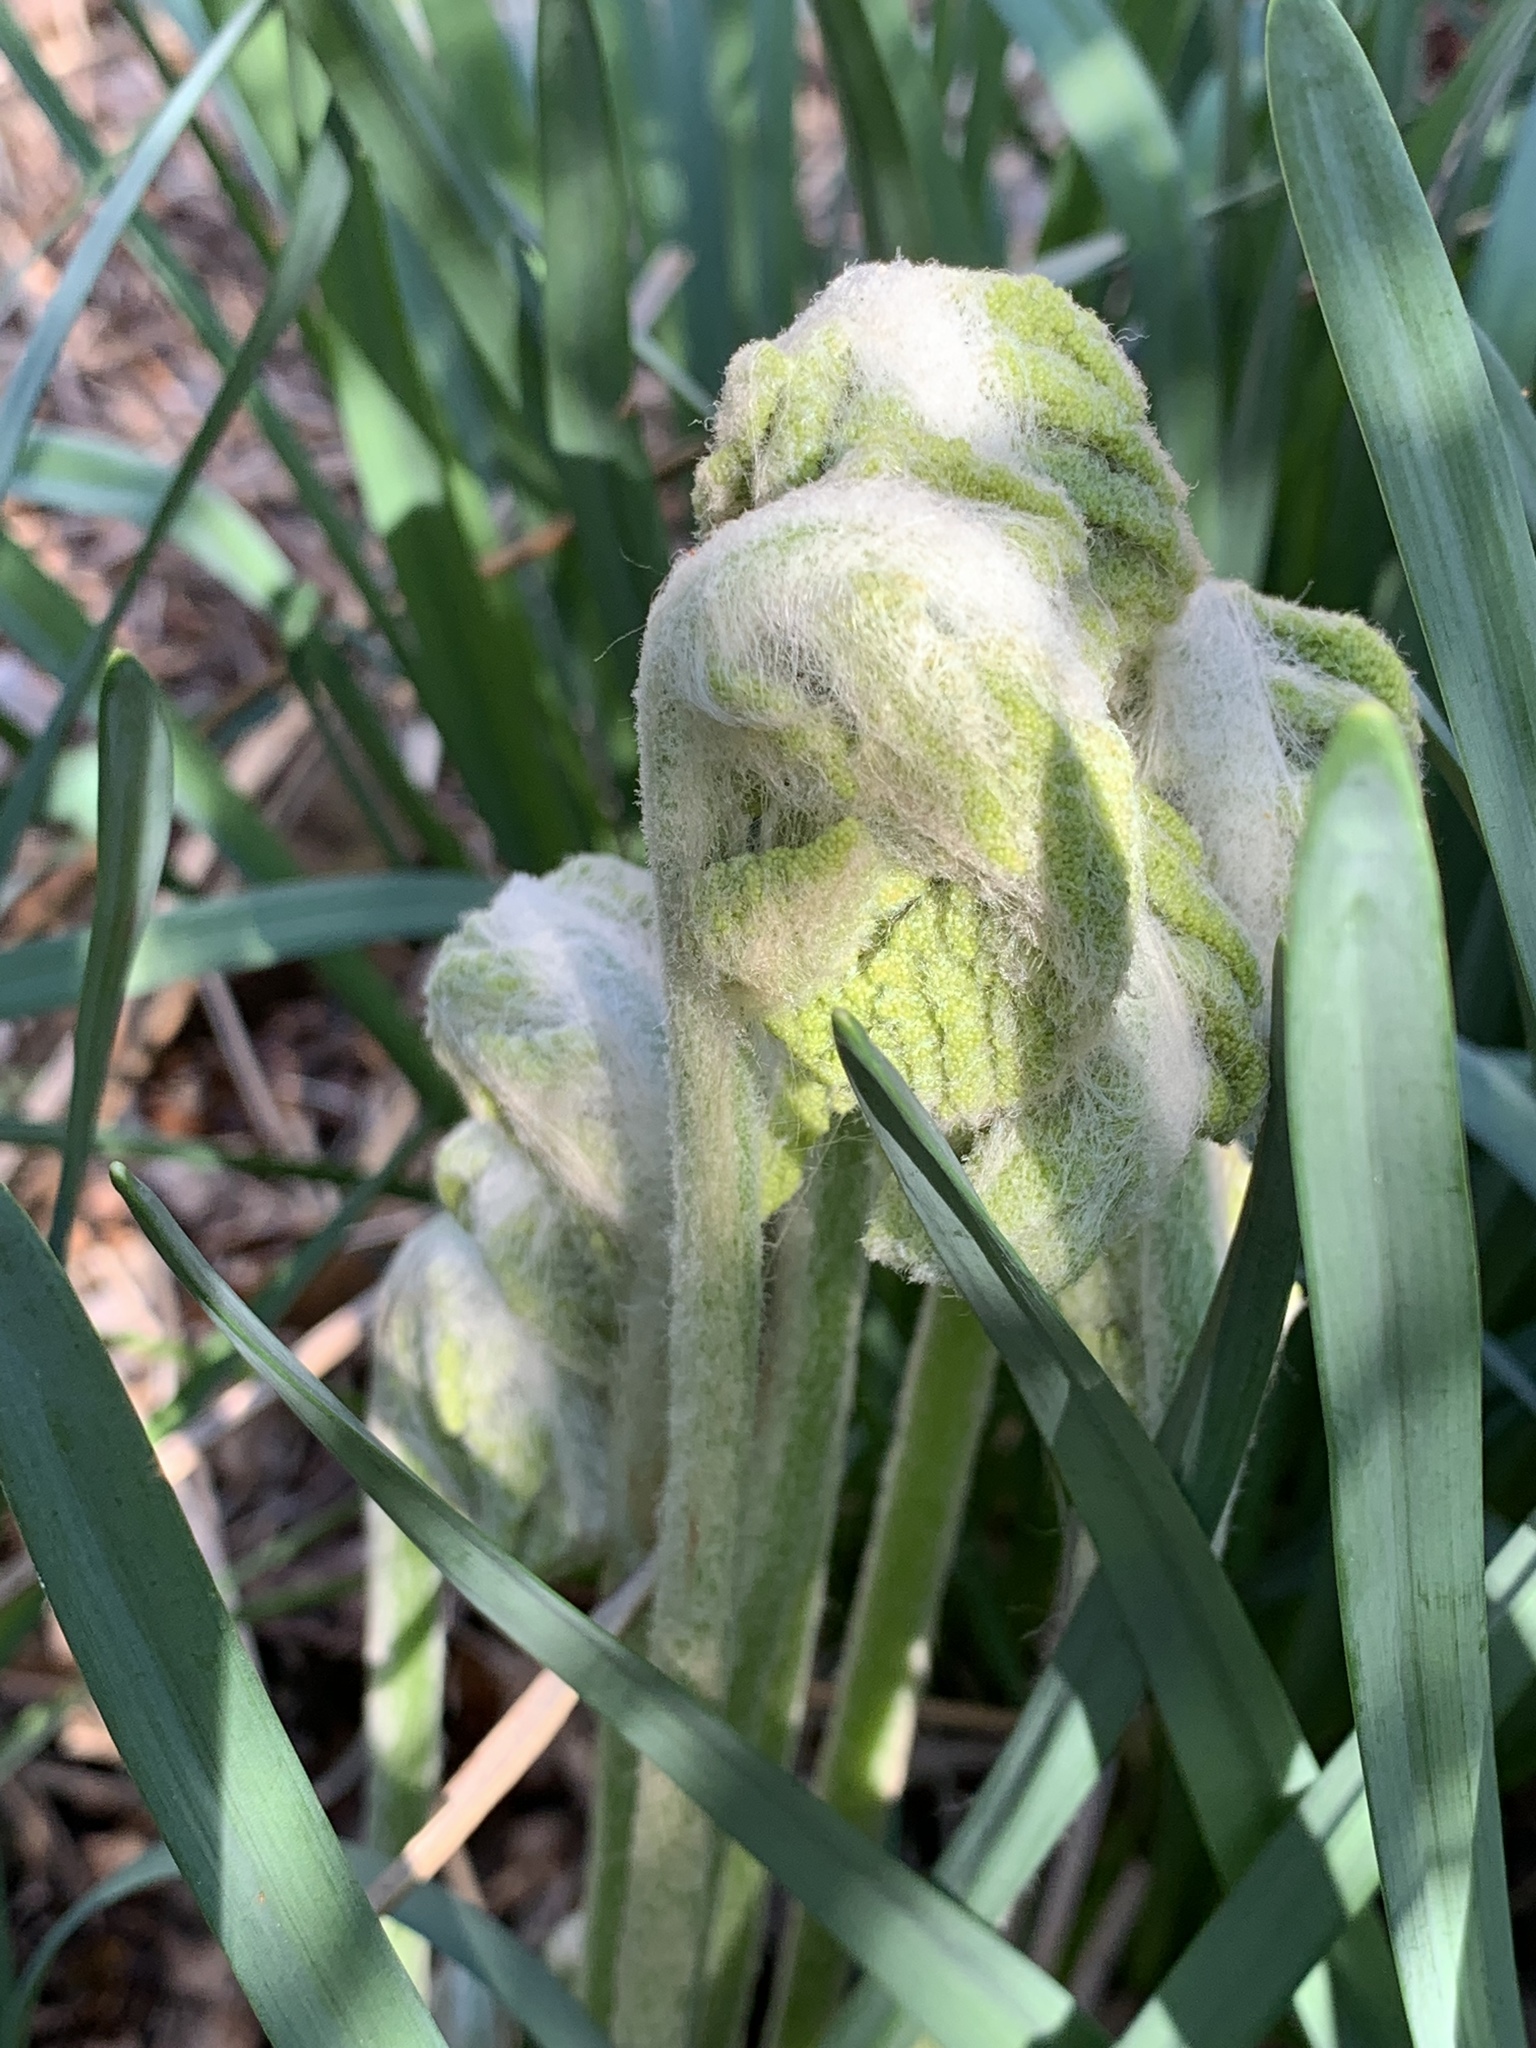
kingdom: Plantae
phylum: Tracheophyta
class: Polypodiopsida
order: Osmundales
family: Osmundaceae
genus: Osmundastrum
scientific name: Osmundastrum cinnamomeum
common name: Cinnamon fern
